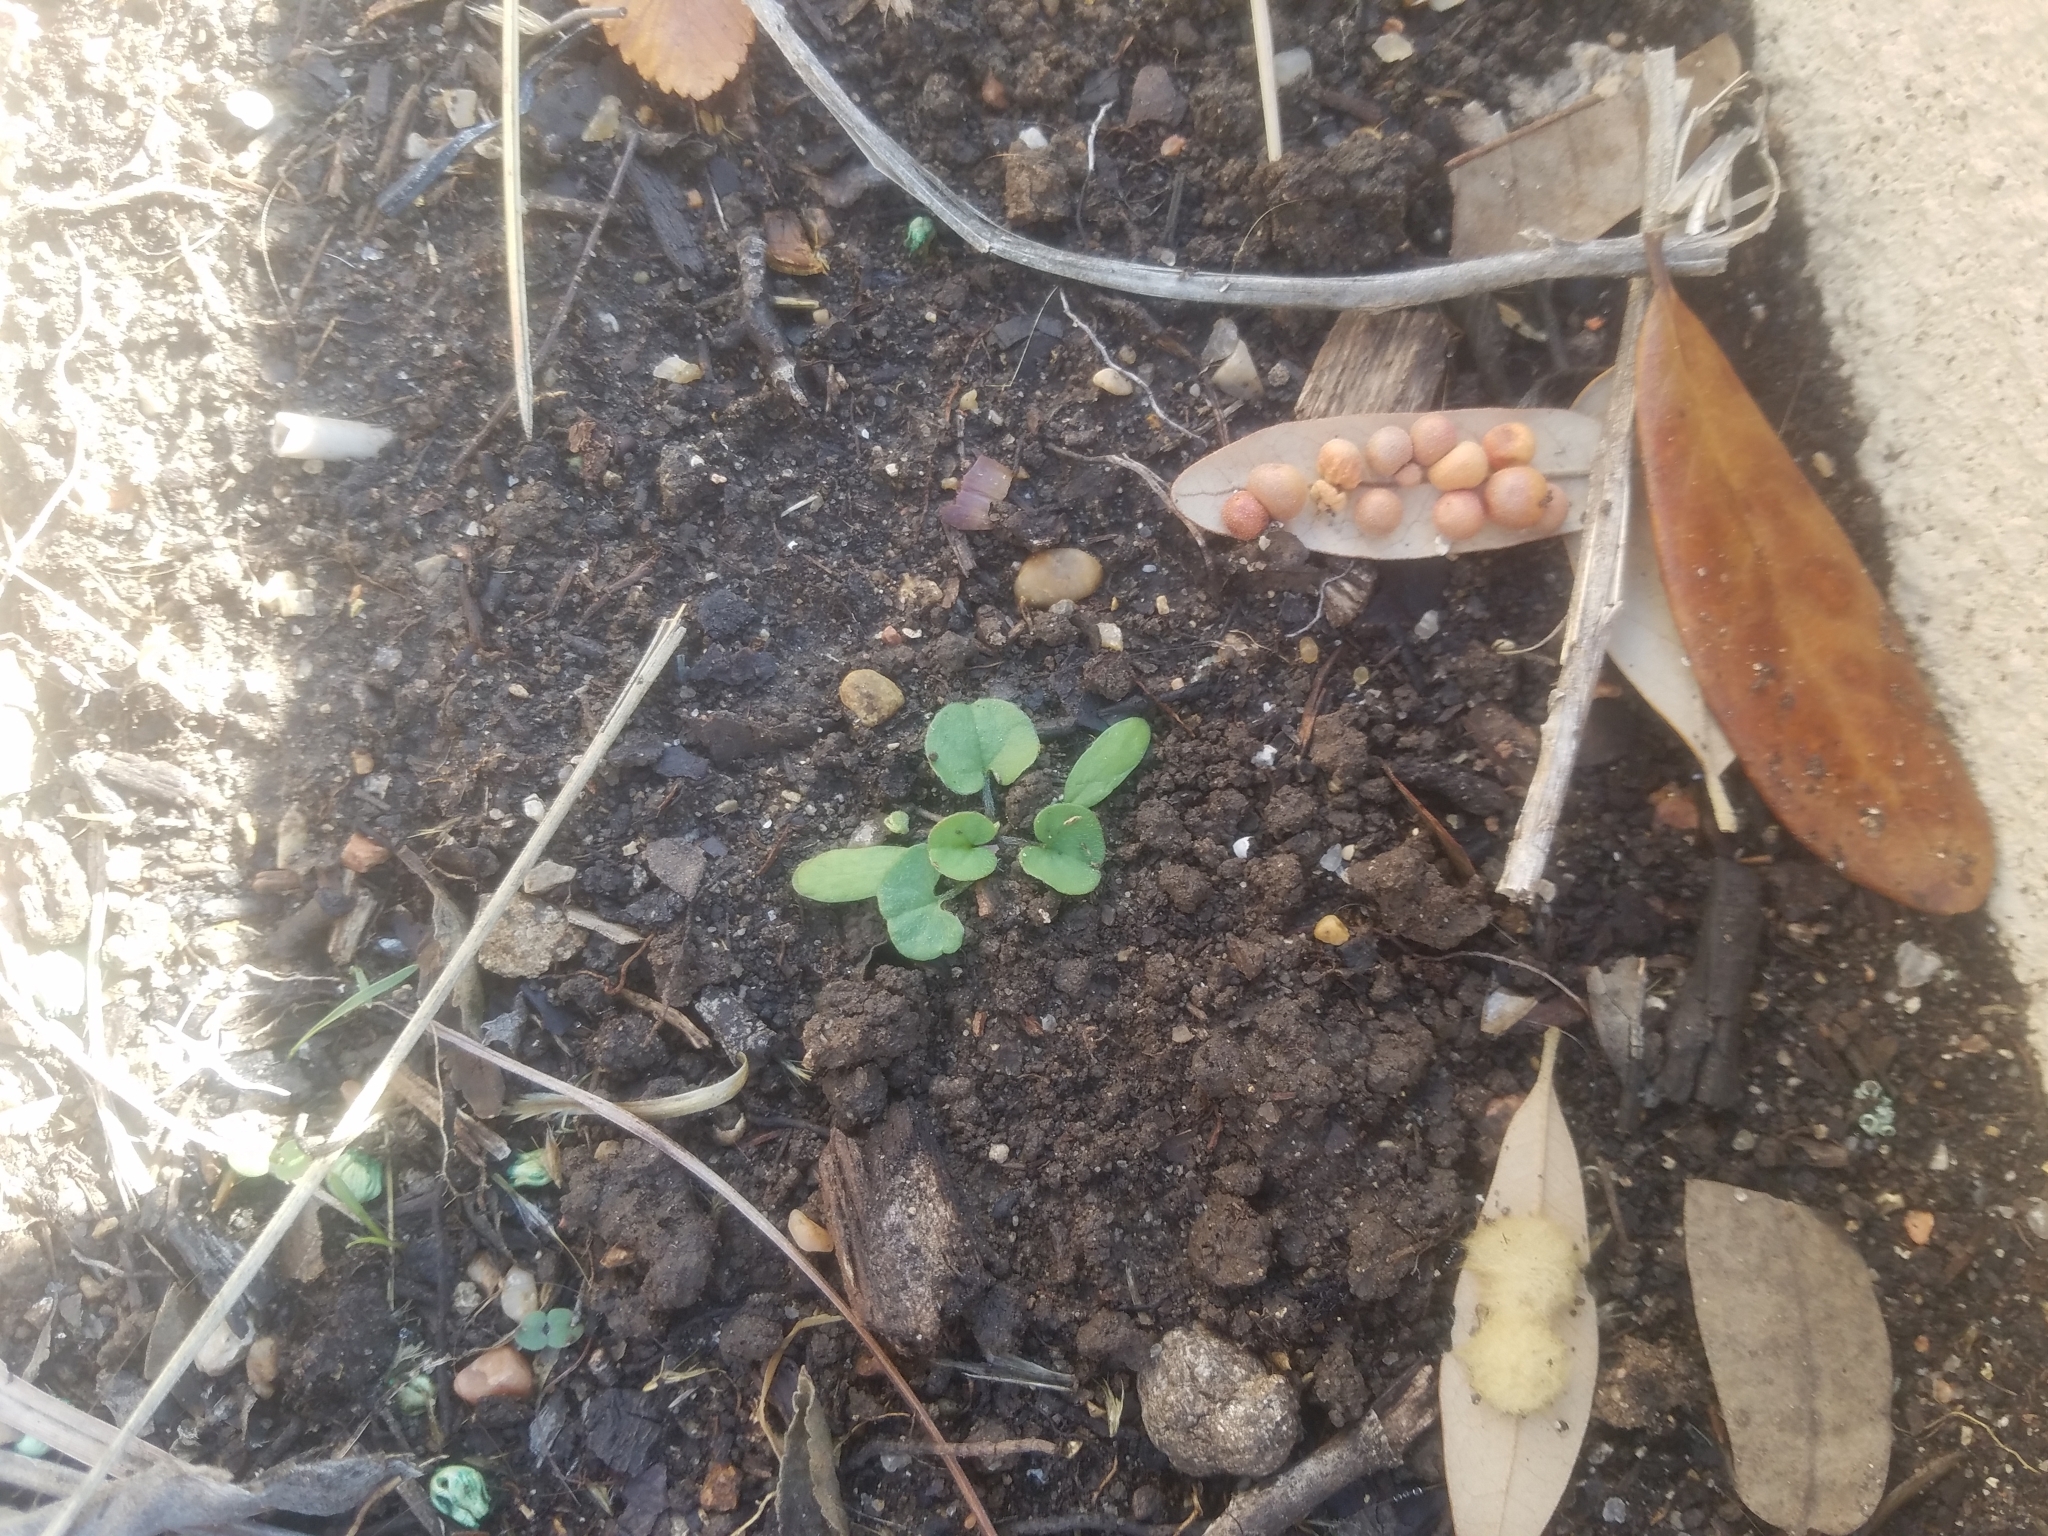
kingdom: Plantae
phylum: Tracheophyta
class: Magnoliopsida
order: Solanales
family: Convolvulaceae
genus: Dichondra
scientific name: Dichondra carolinensis
